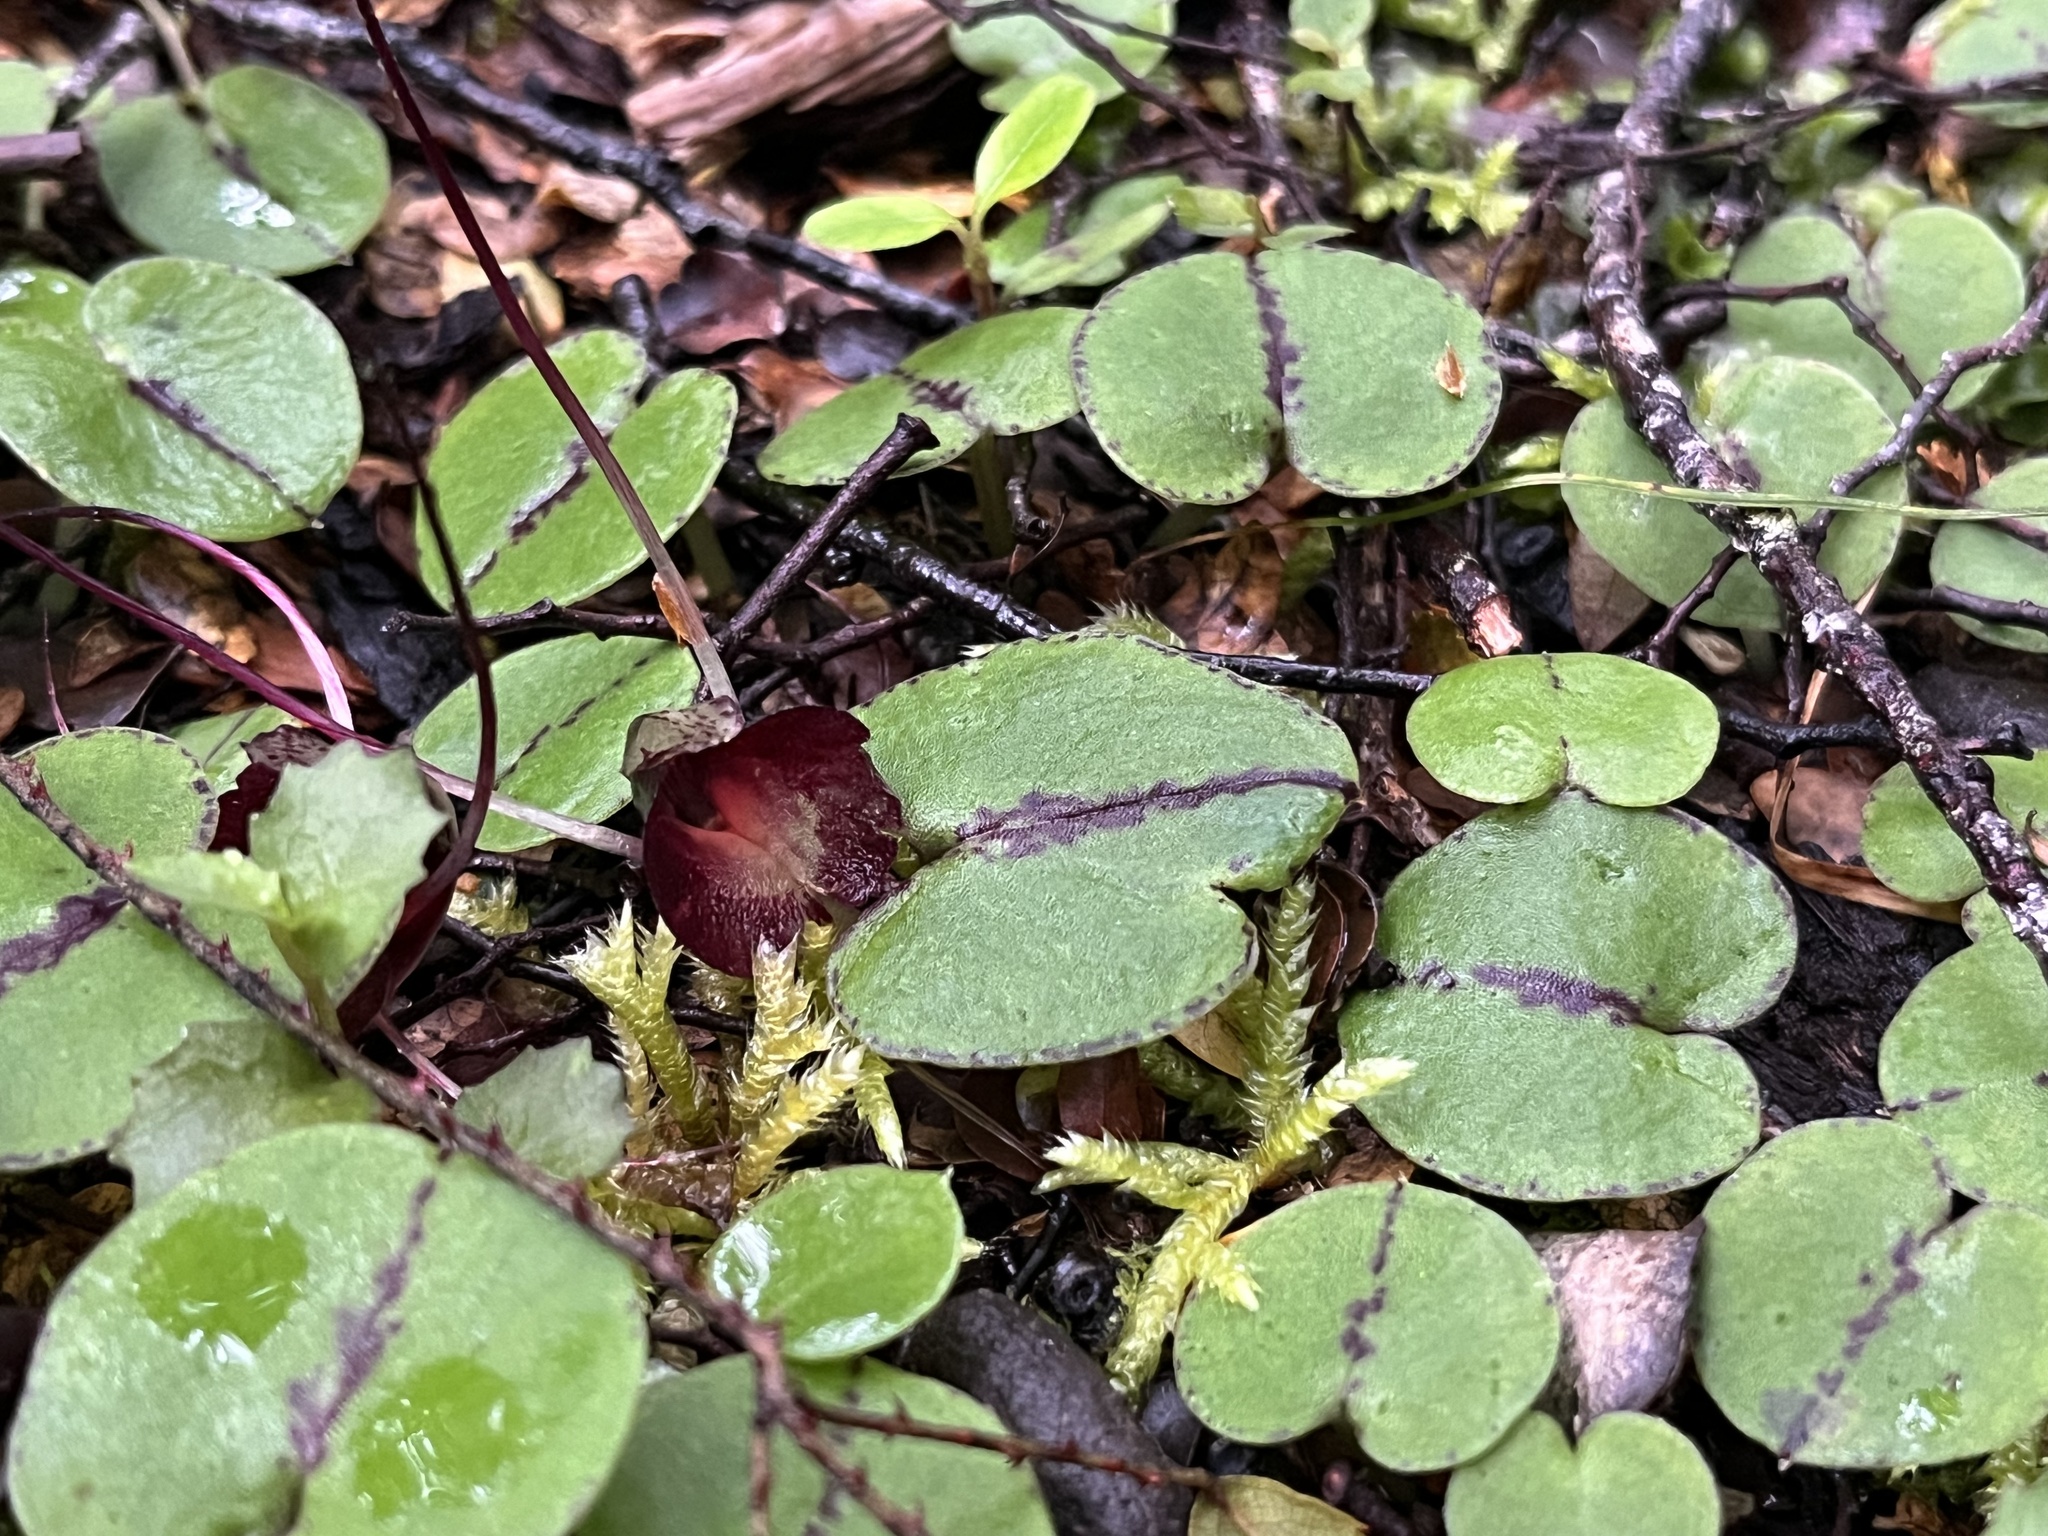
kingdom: Plantae
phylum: Tracheophyta
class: Liliopsida
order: Asparagales
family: Orchidaceae
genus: Corybas
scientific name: Corybas macranthus
